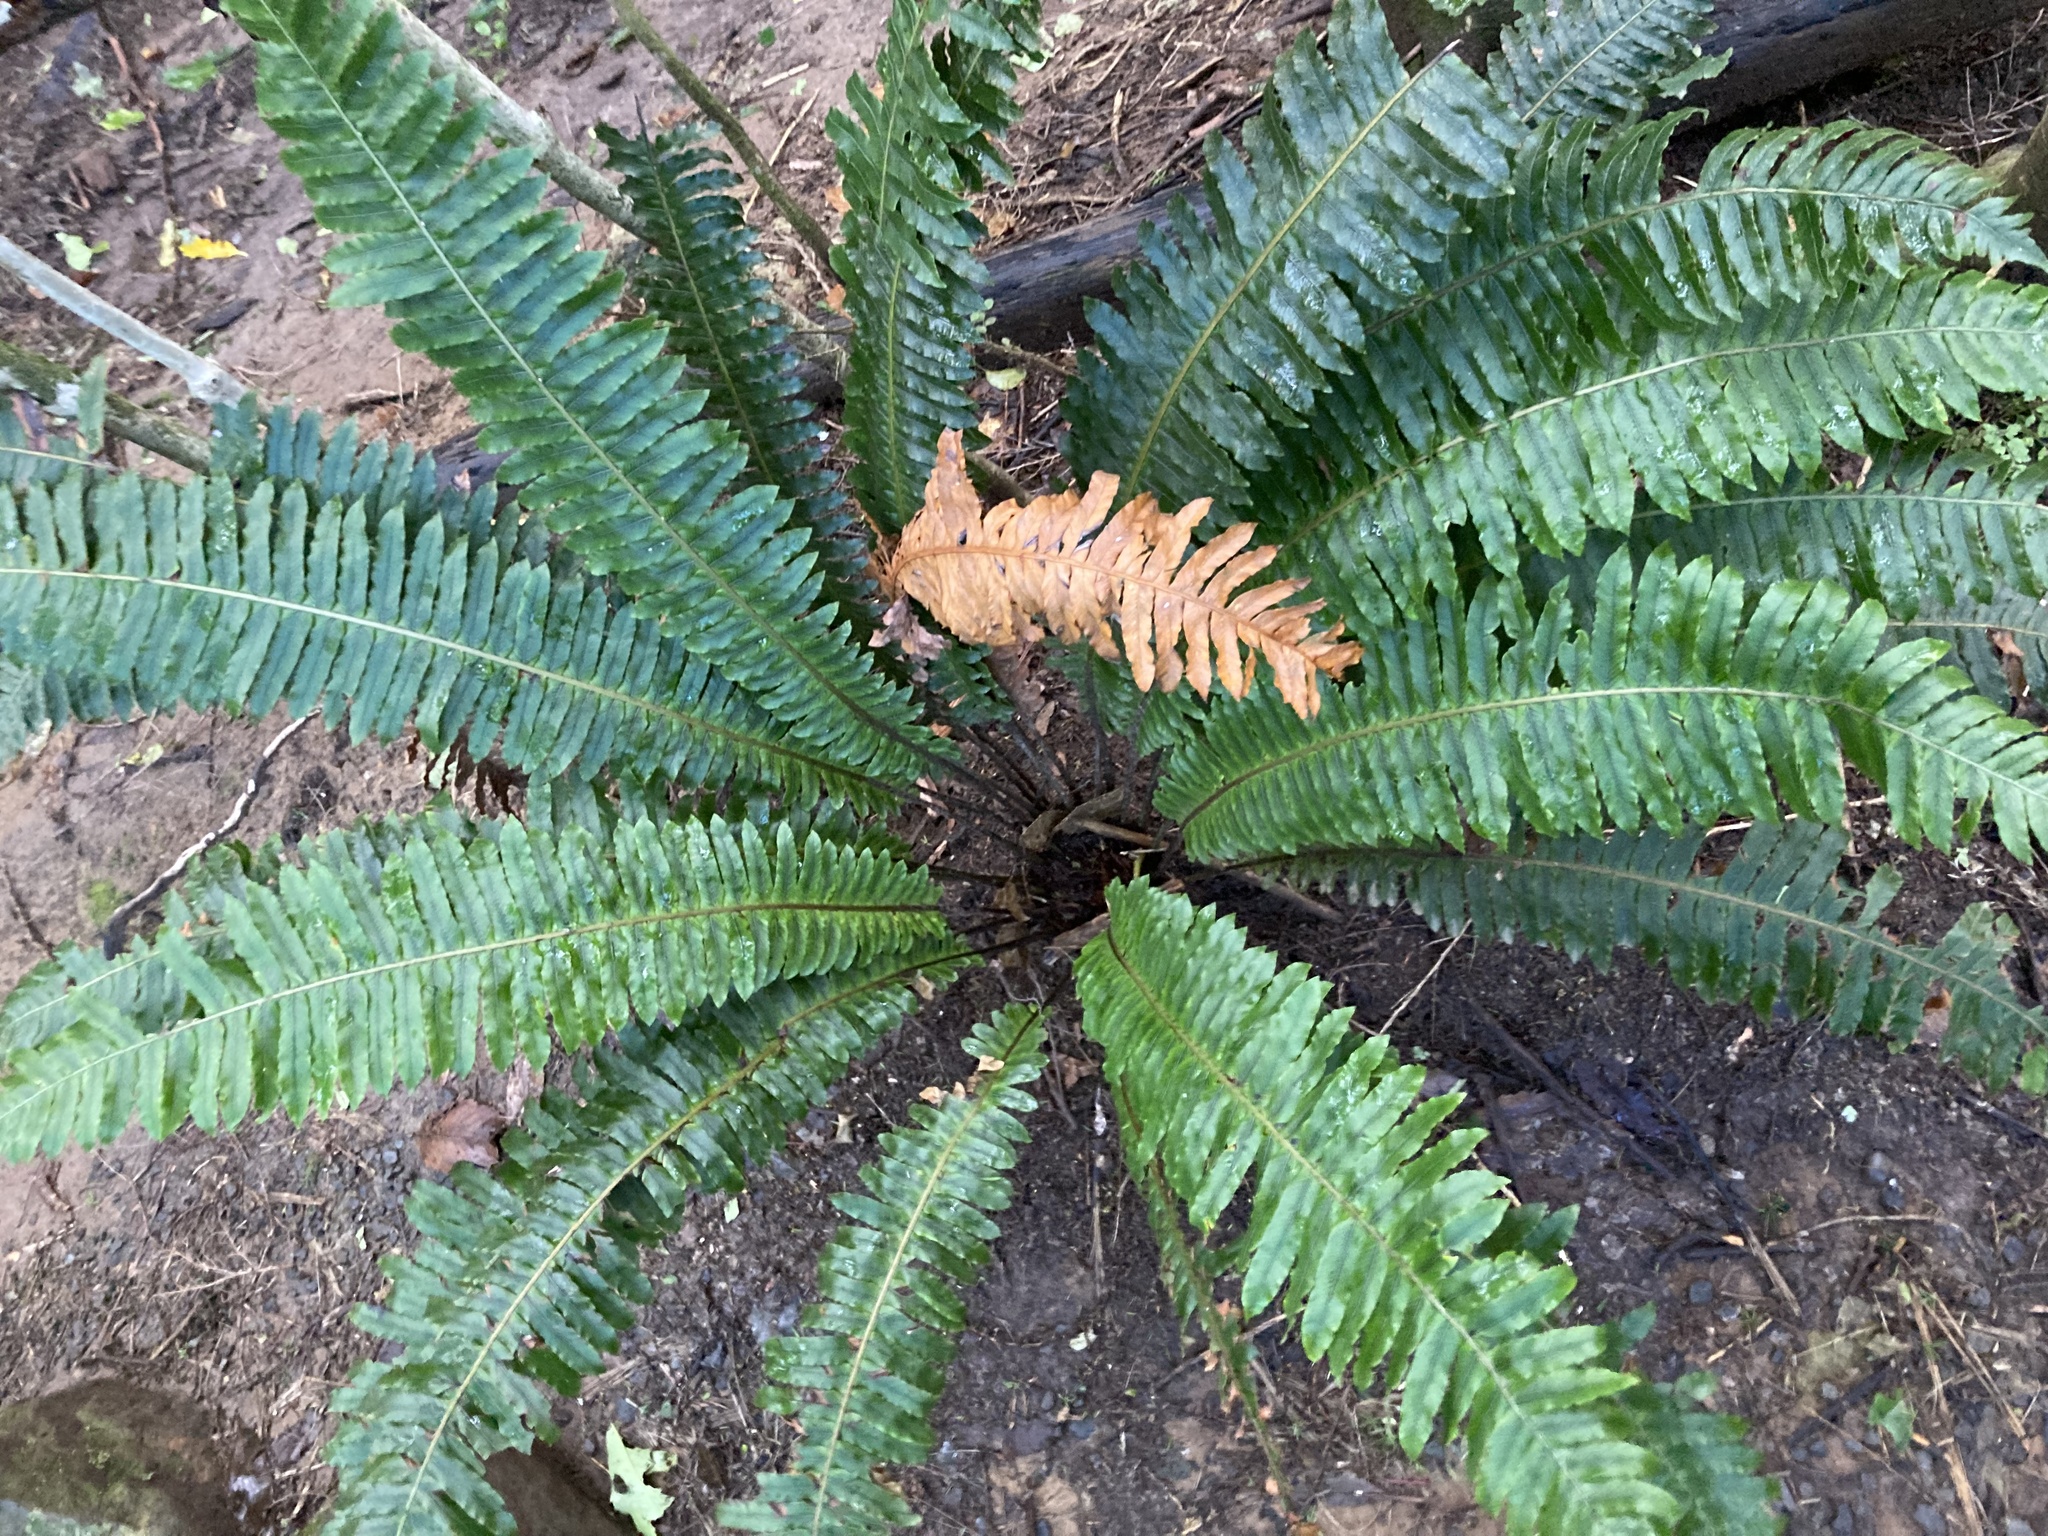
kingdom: Plantae
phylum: Tracheophyta
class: Polypodiopsida
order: Polypodiales
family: Blechnaceae
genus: Lomaria
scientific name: Lomaria discolor
